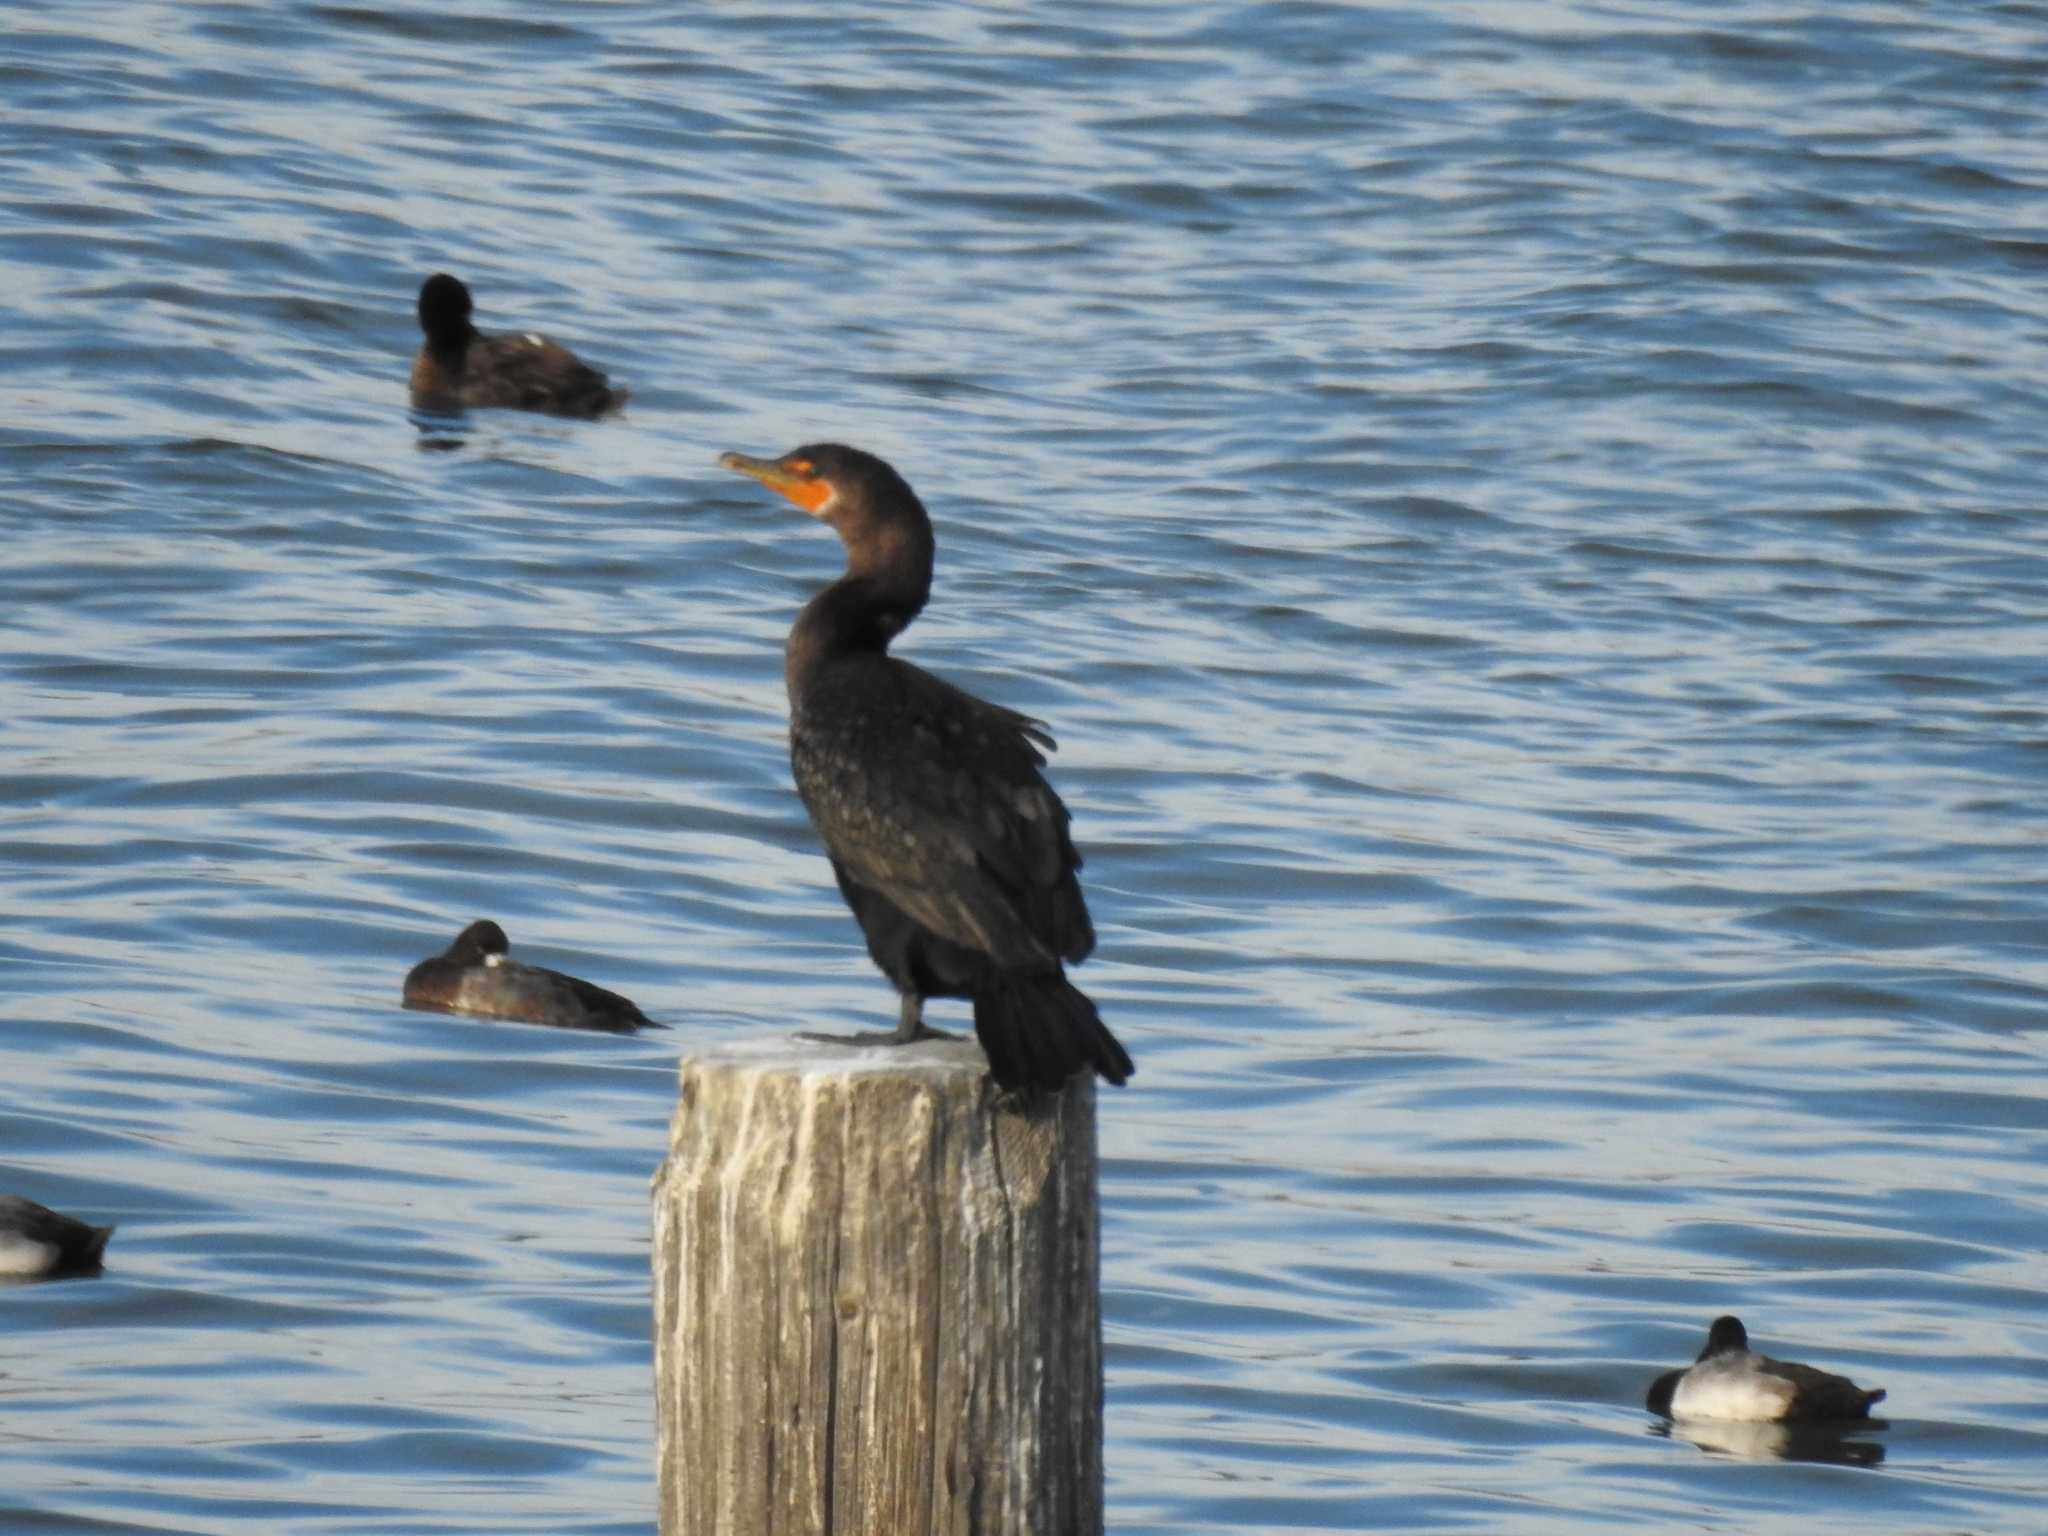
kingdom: Animalia
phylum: Chordata
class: Aves
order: Suliformes
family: Phalacrocoracidae
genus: Phalacrocorax
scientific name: Phalacrocorax auritus
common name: Double-crested cormorant
